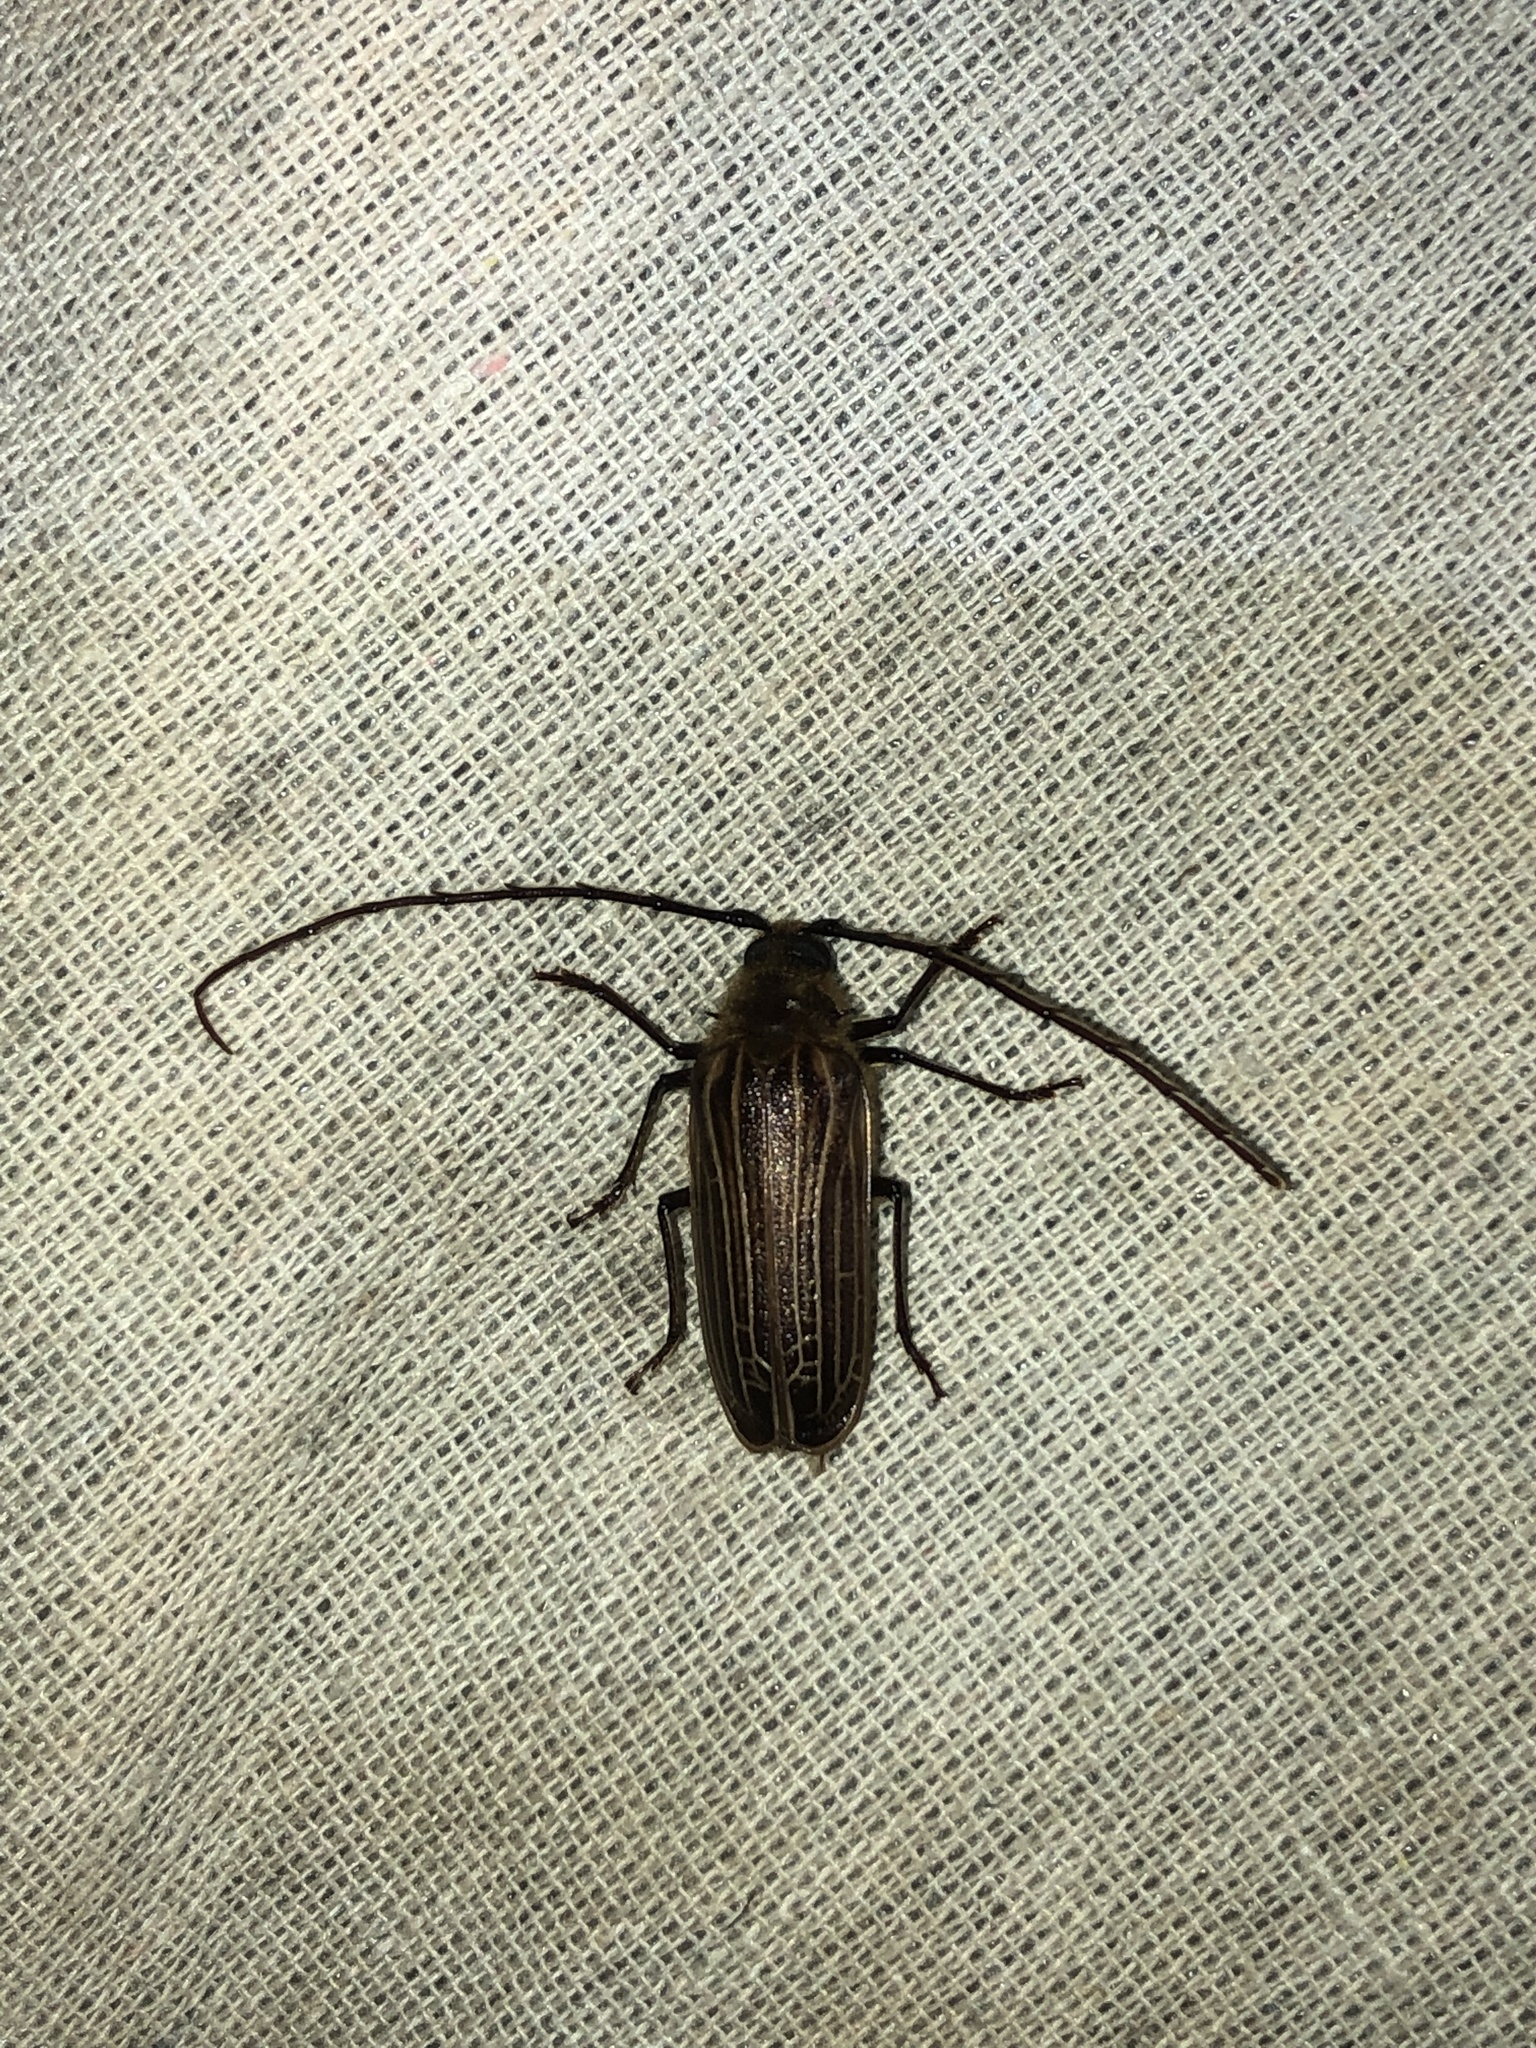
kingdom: Animalia
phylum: Arthropoda
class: Insecta
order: Coleoptera
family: Cerambycidae
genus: Prionoplus
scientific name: Prionoplus reticularis
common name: Huhu beetle
